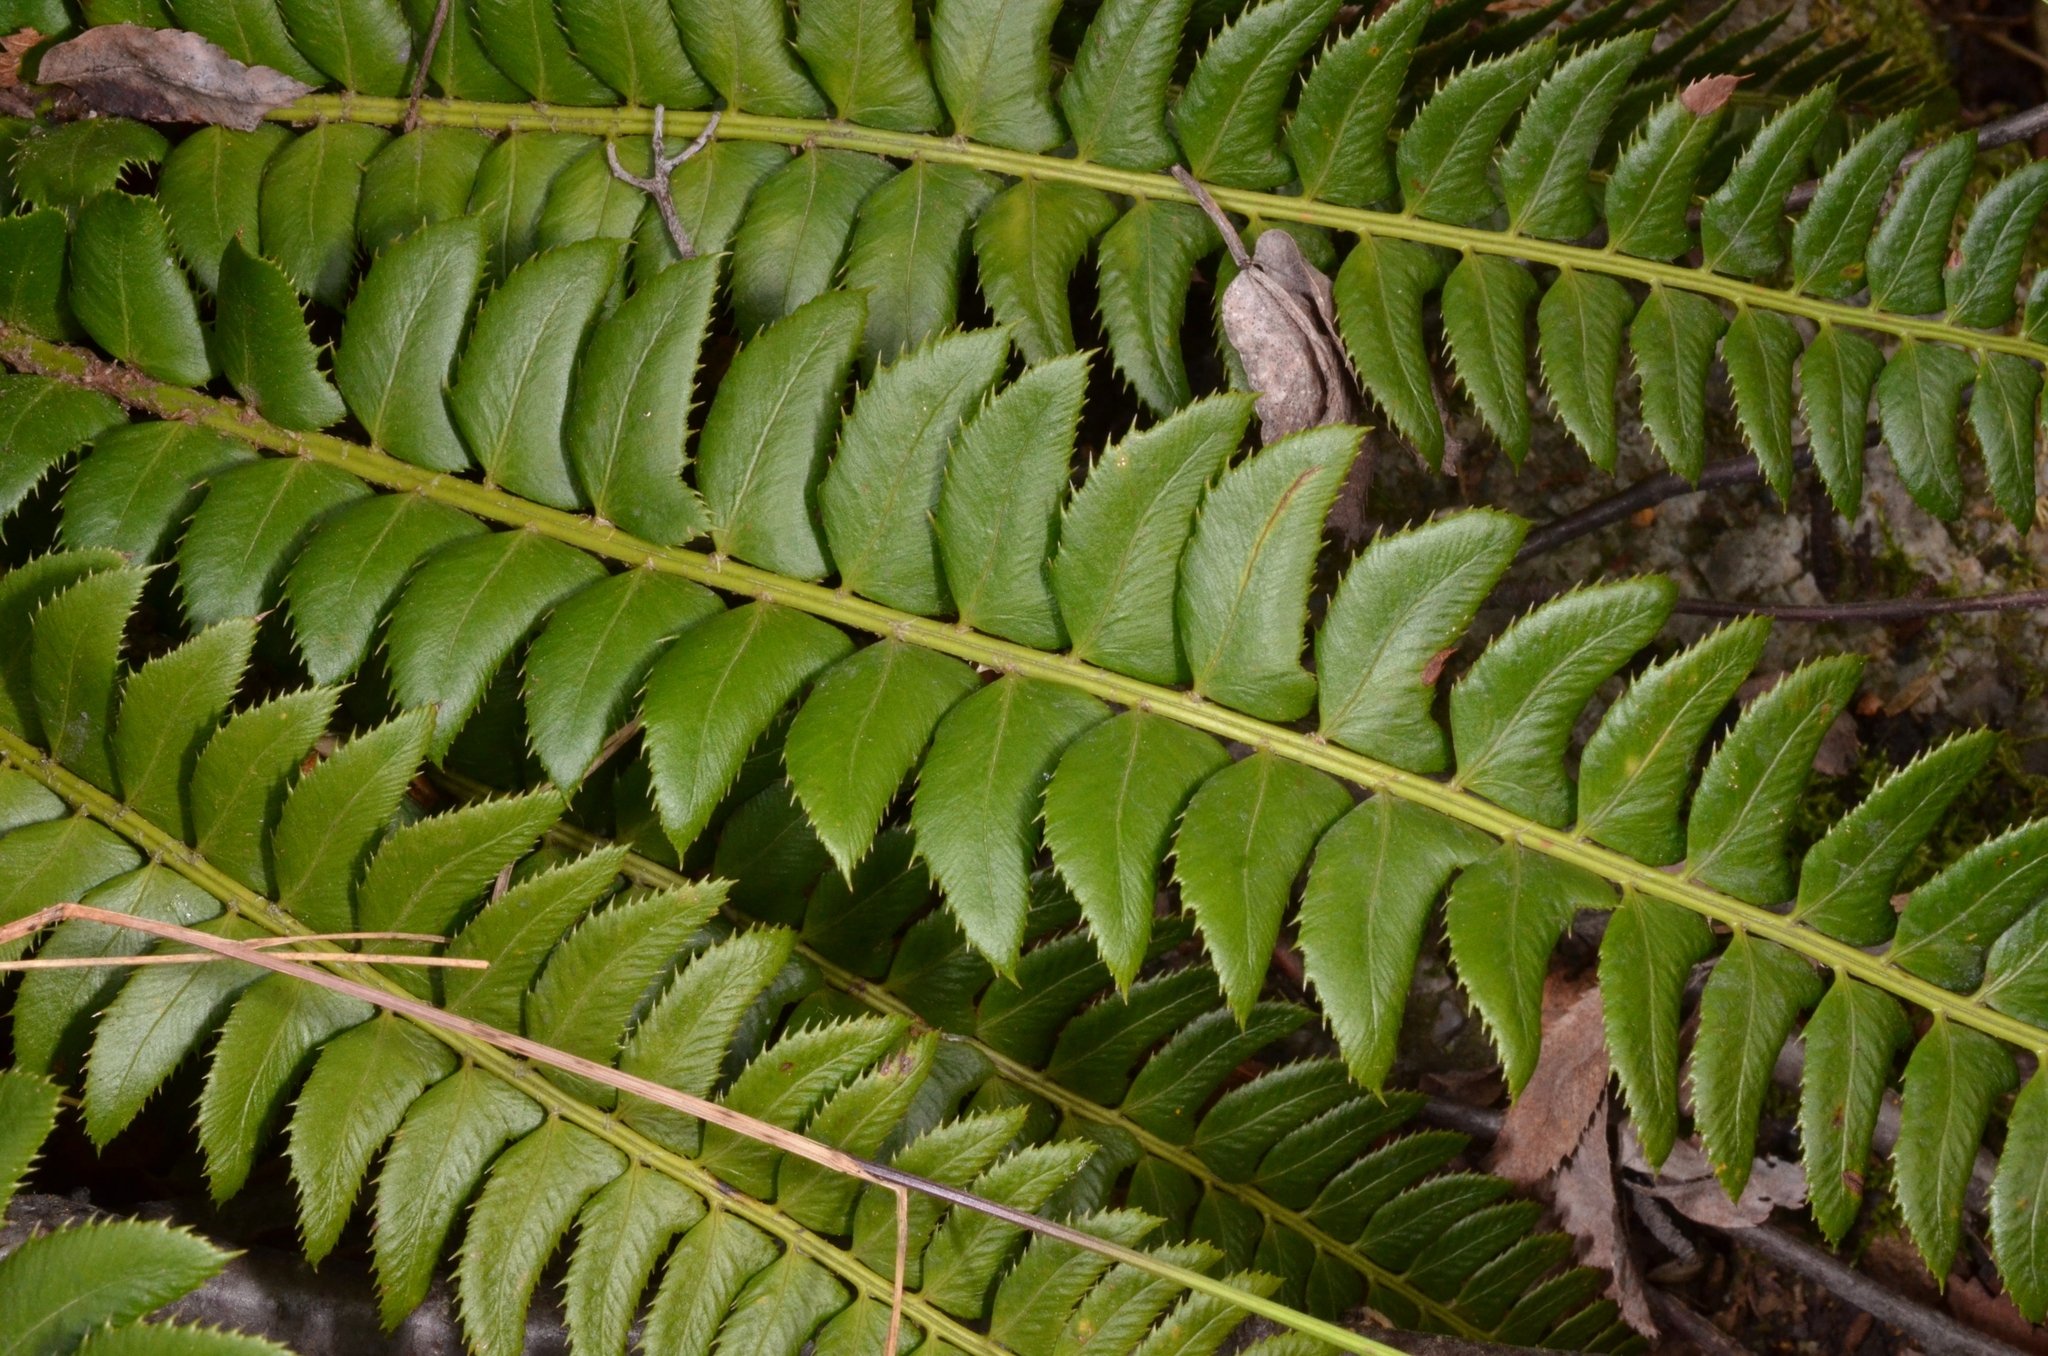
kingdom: Plantae
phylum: Tracheophyta
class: Polypodiopsida
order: Polypodiales
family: Dryopteridaceae
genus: Polystichum
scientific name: Polystichum lonchitis
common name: Holly fern
